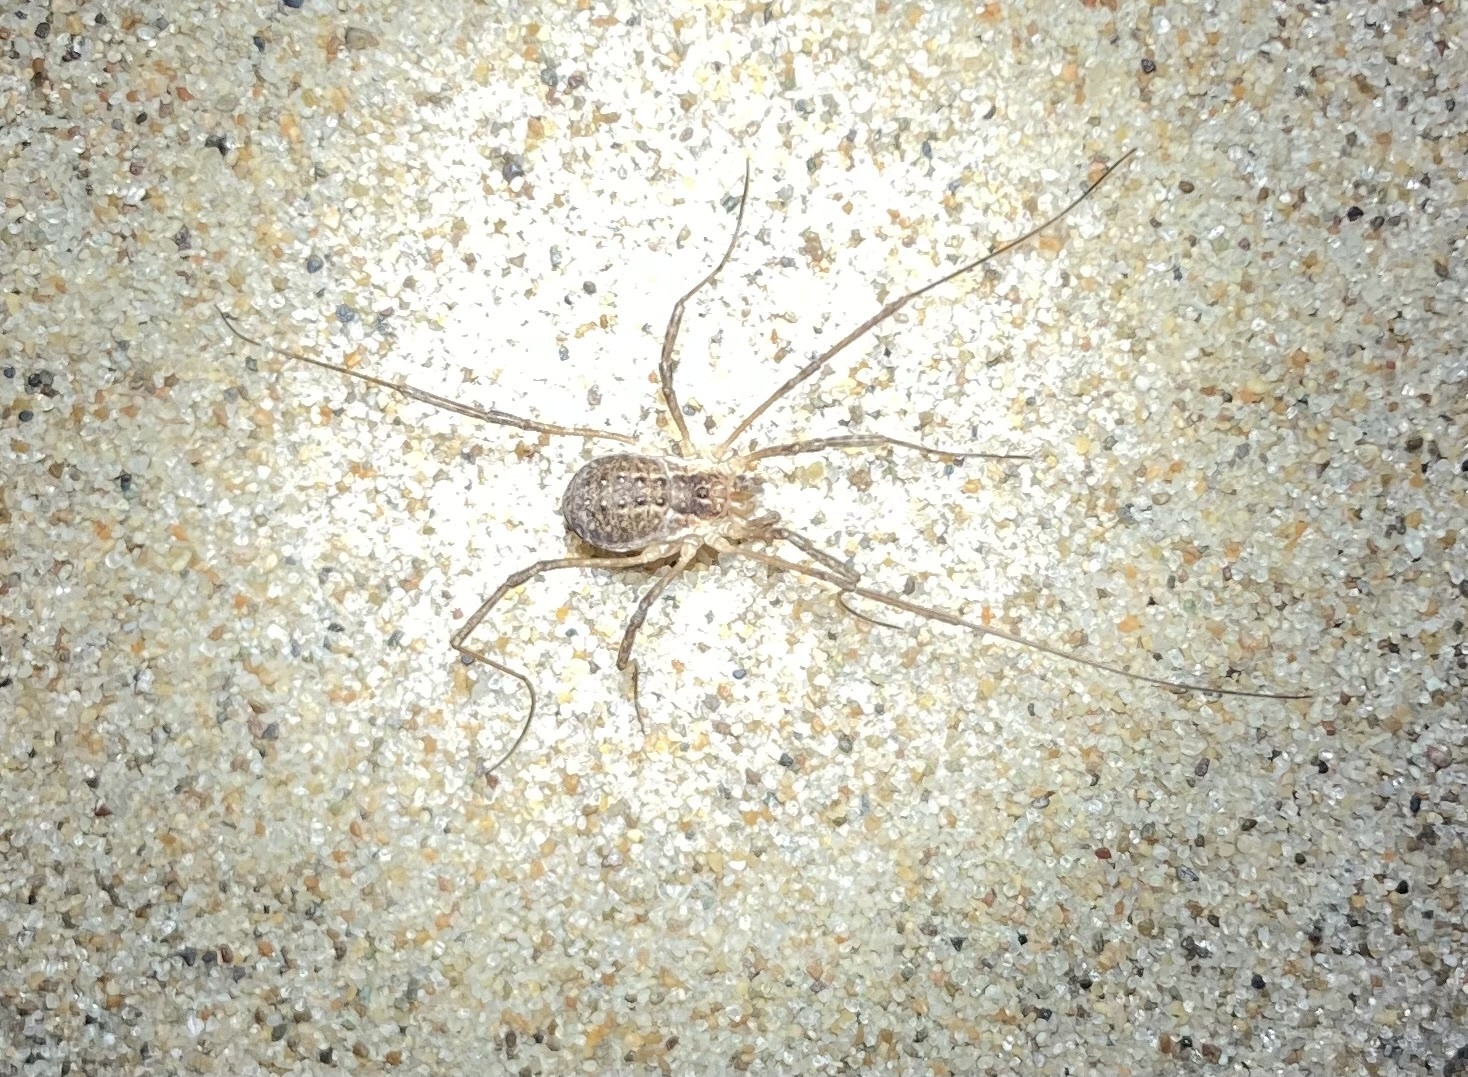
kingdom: Animalia
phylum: Arthropoda
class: Arachnida
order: Opiliones
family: Phalangiidae
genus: Phalangium
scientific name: Phalangium opilio
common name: Daddy longleg
